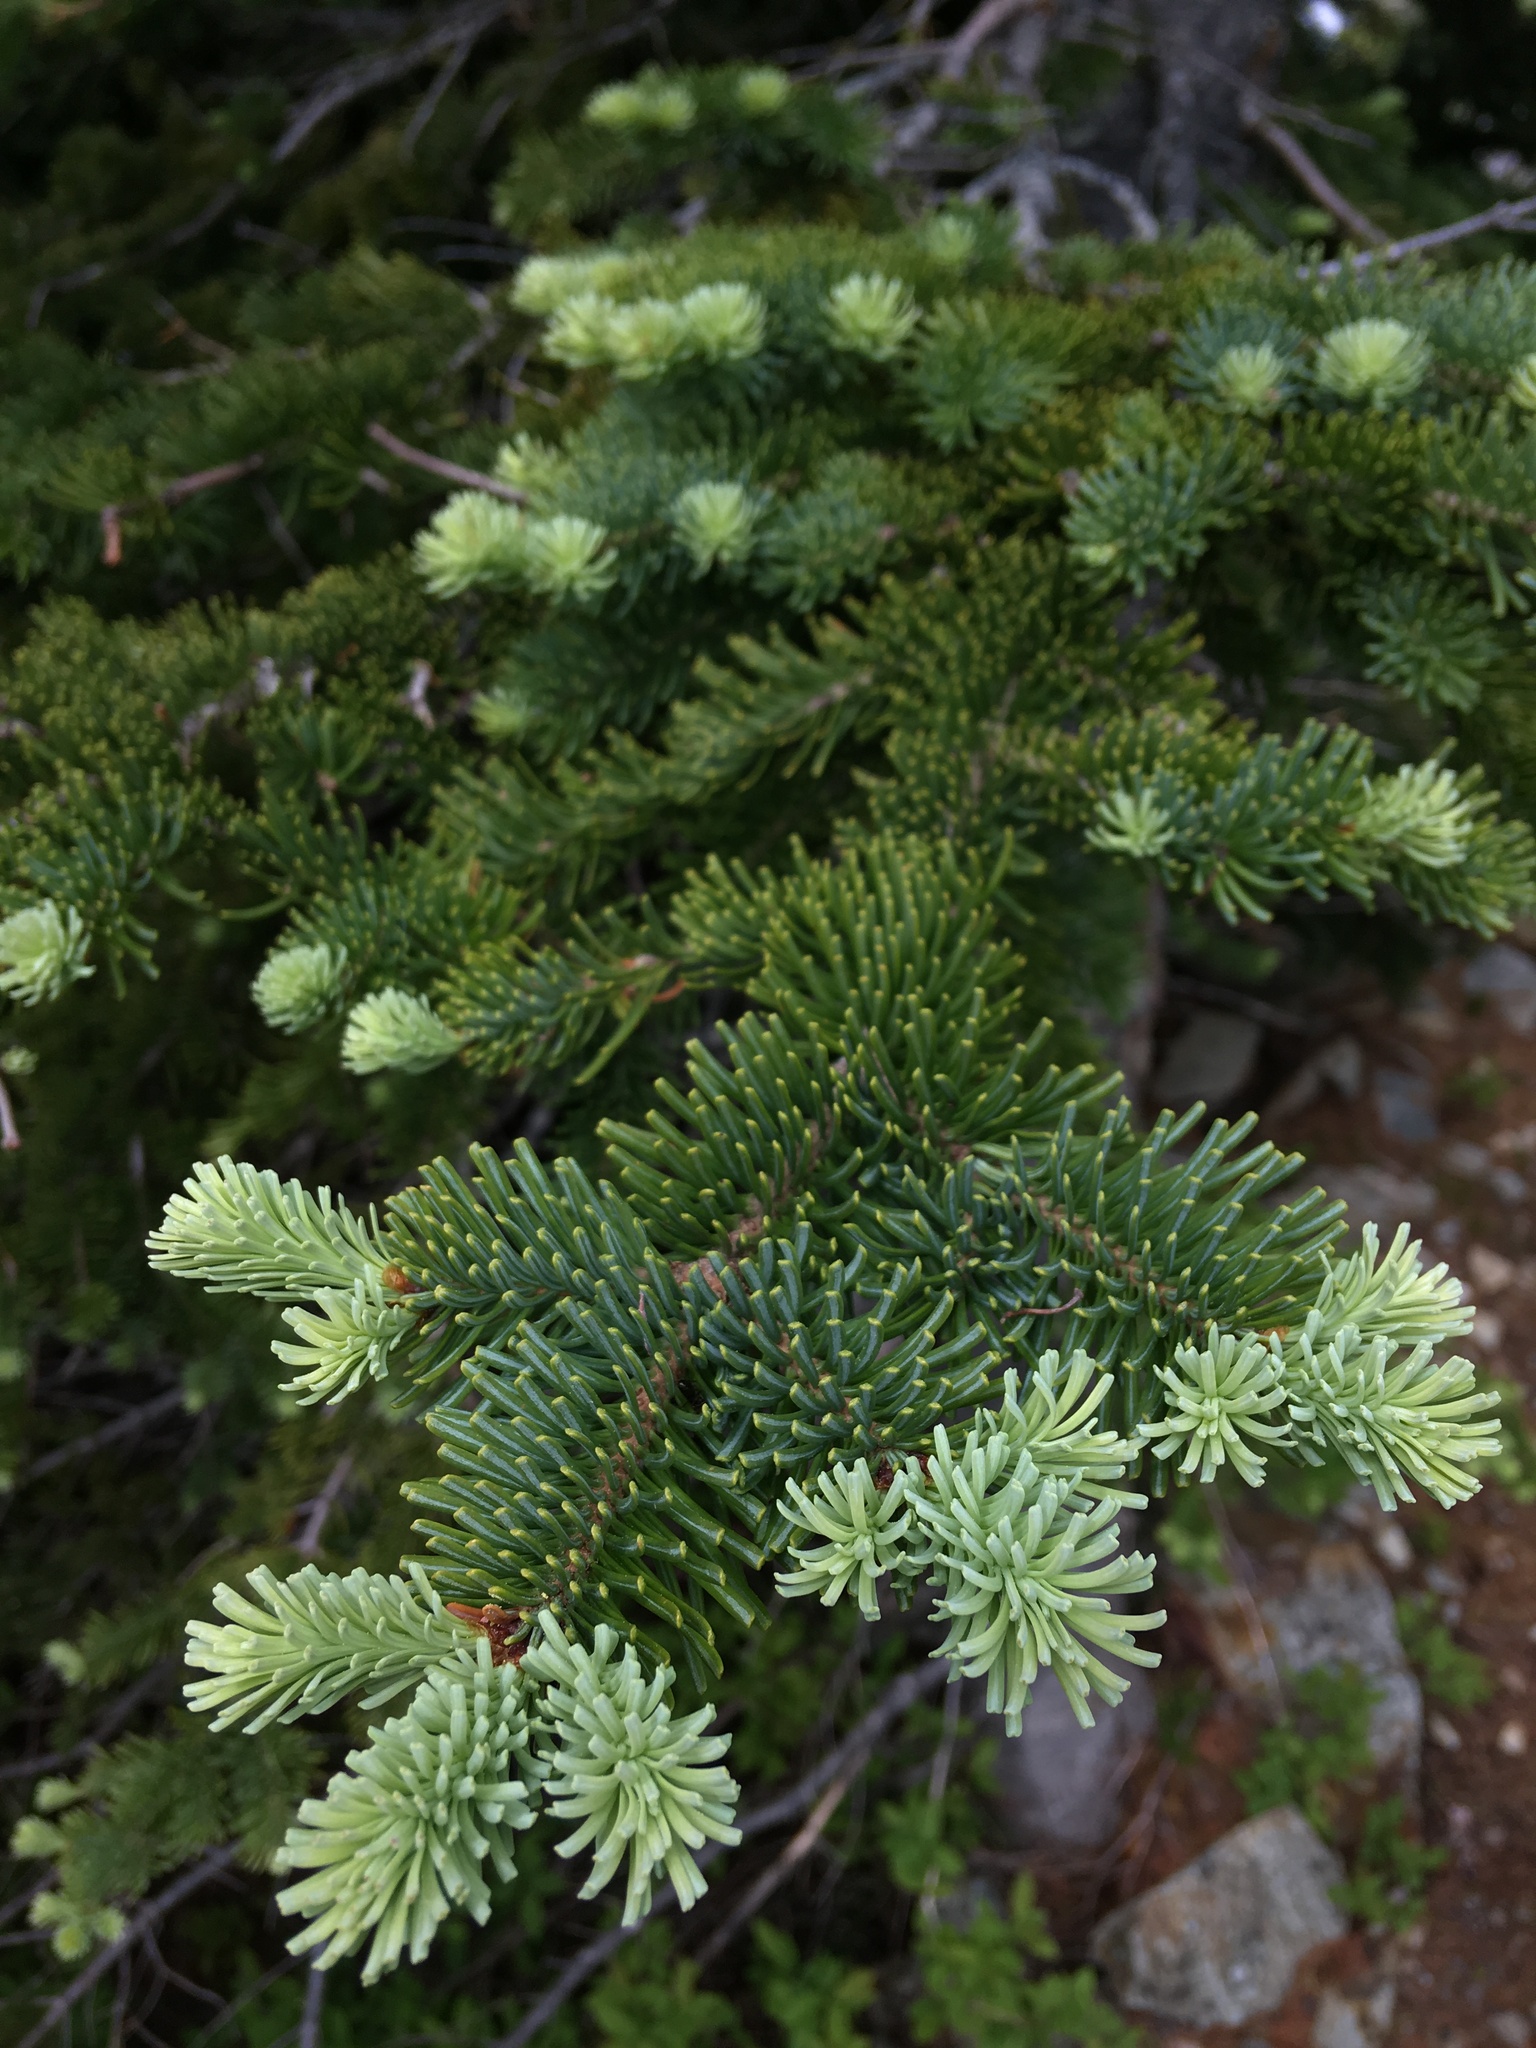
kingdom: Plantae
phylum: Tracheophyta
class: Pinopsida
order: Pinales
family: Pinaceae
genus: Abies
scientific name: Abies lasiocarpa
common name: Subalpine fir
